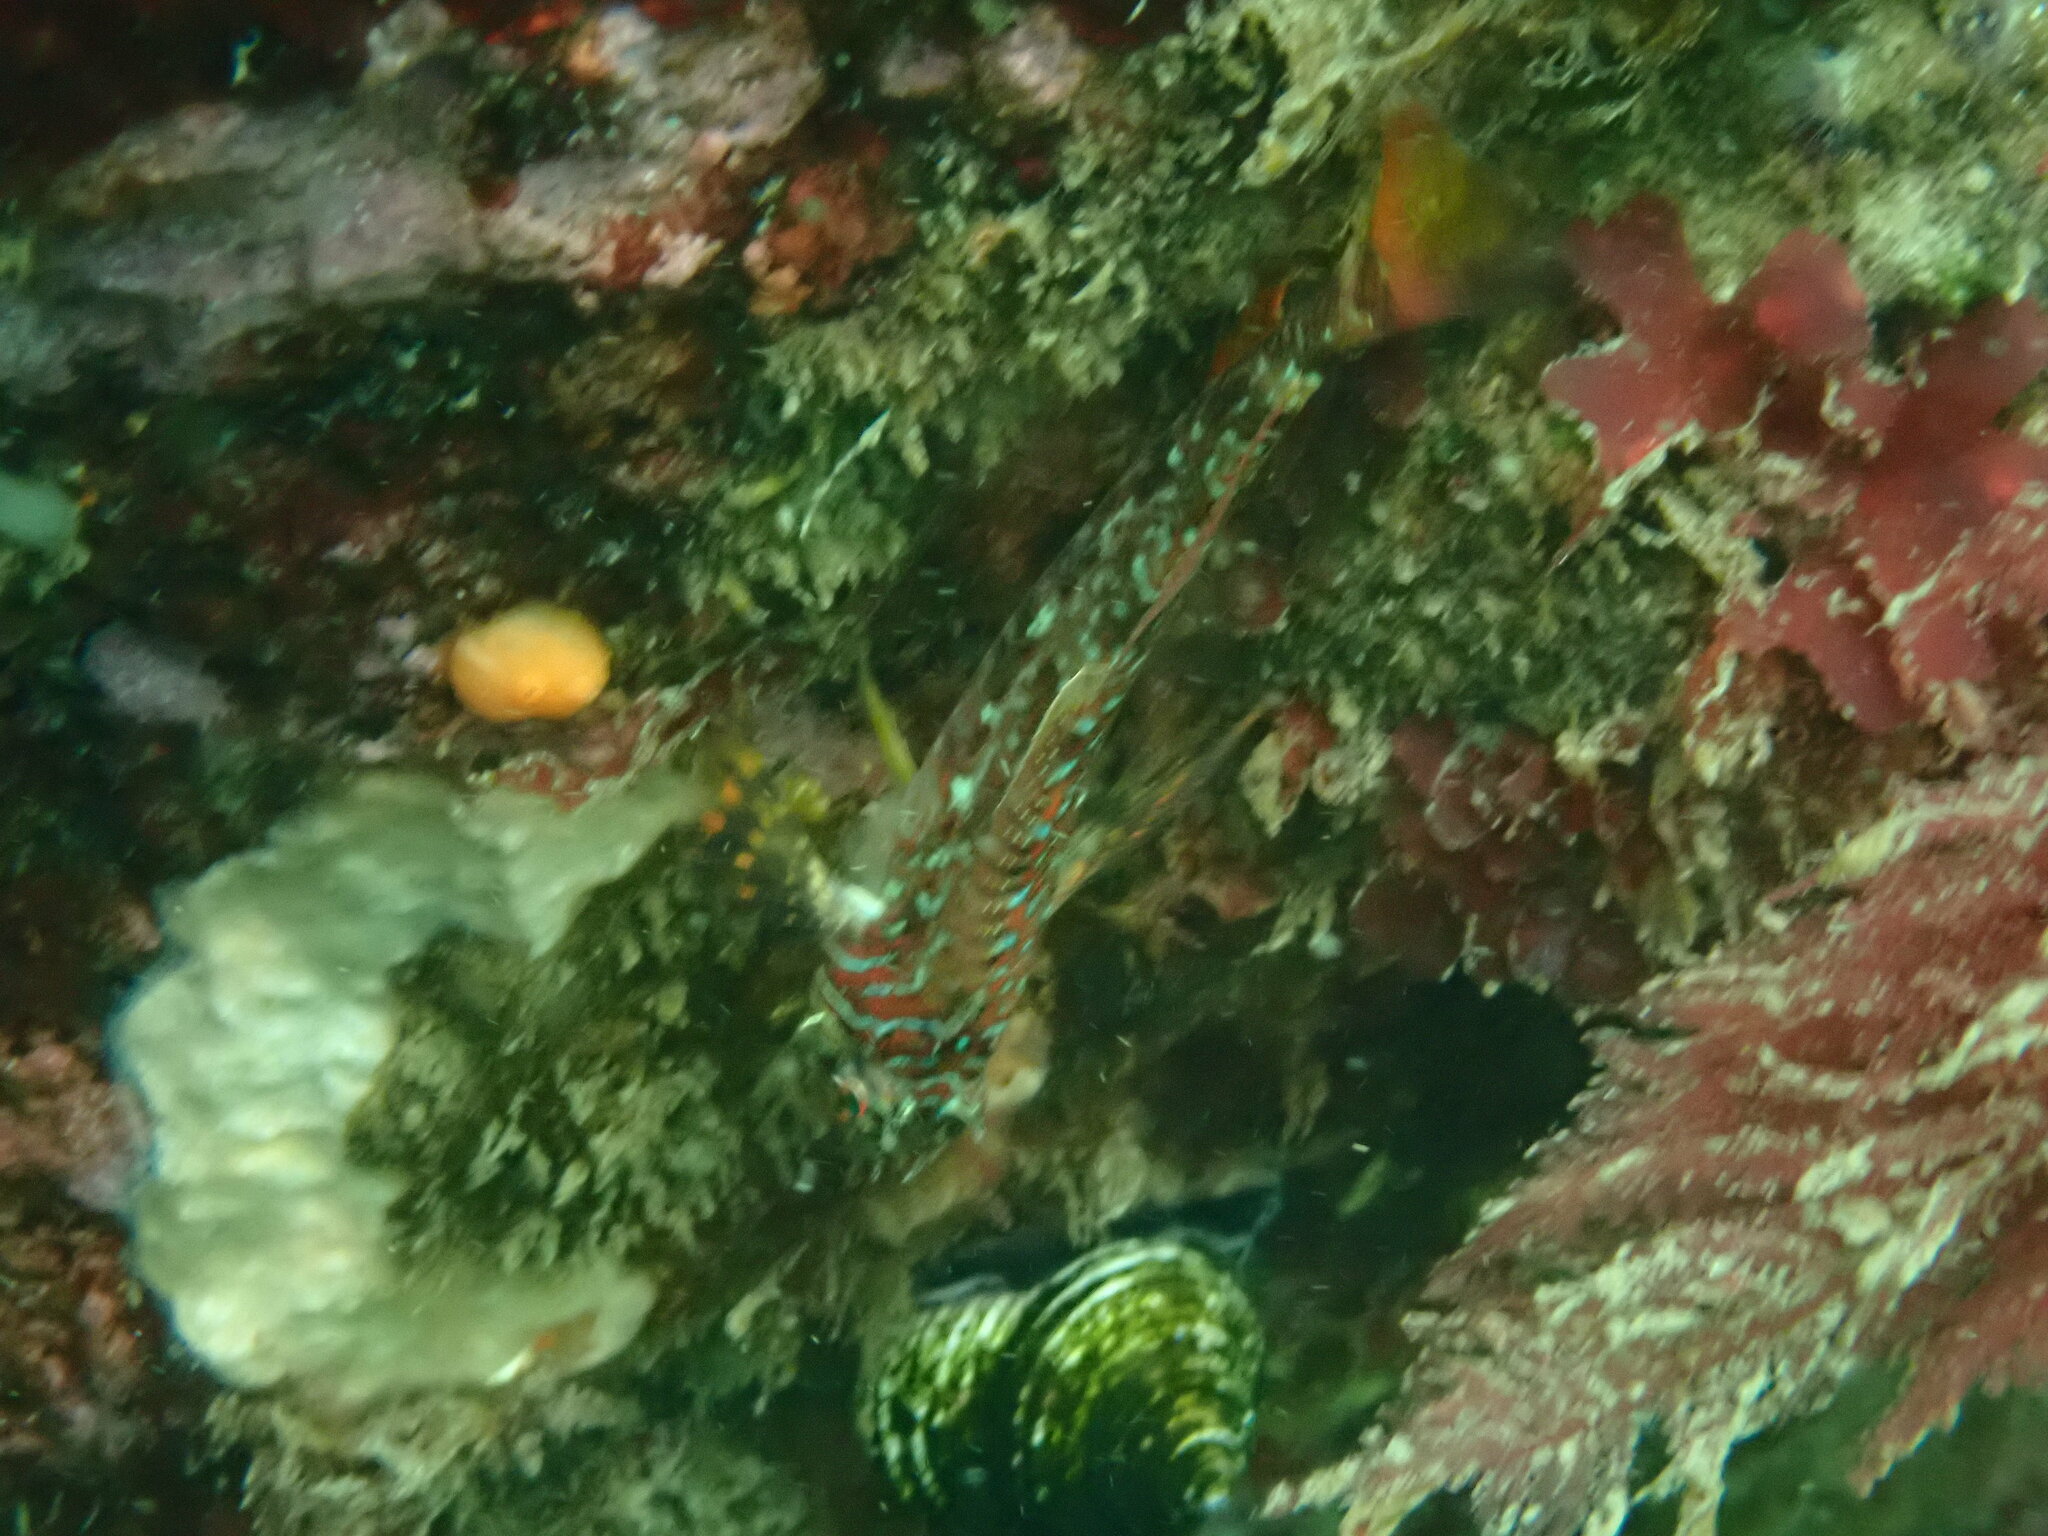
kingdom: Animalia
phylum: Chordata
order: Scorpaeniformes
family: Cottidae
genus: Jordania
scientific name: Jordania zonope
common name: Longfin sculpin
